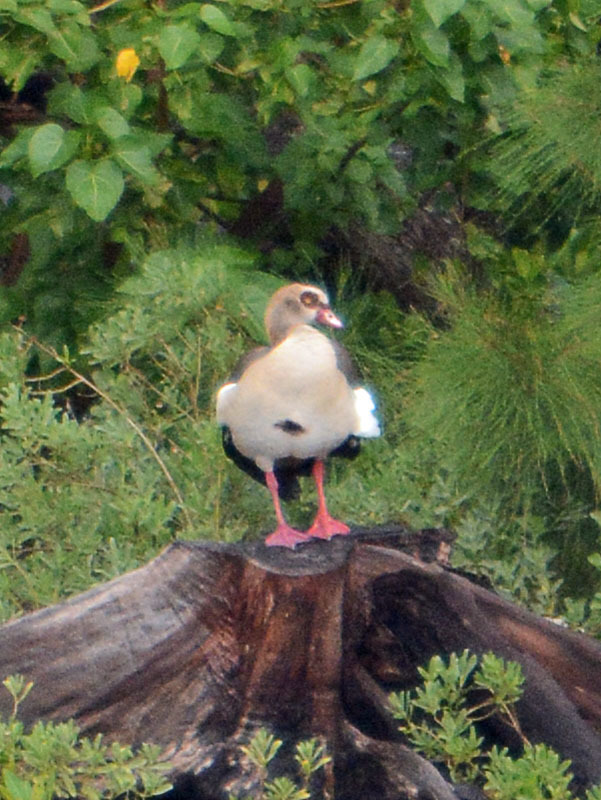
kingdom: Animalia
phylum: Chordata
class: Aves
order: Anseriformes
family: Anatidae
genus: Alopochen
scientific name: Alopochen aegyptiaca
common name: Egyptian goose
